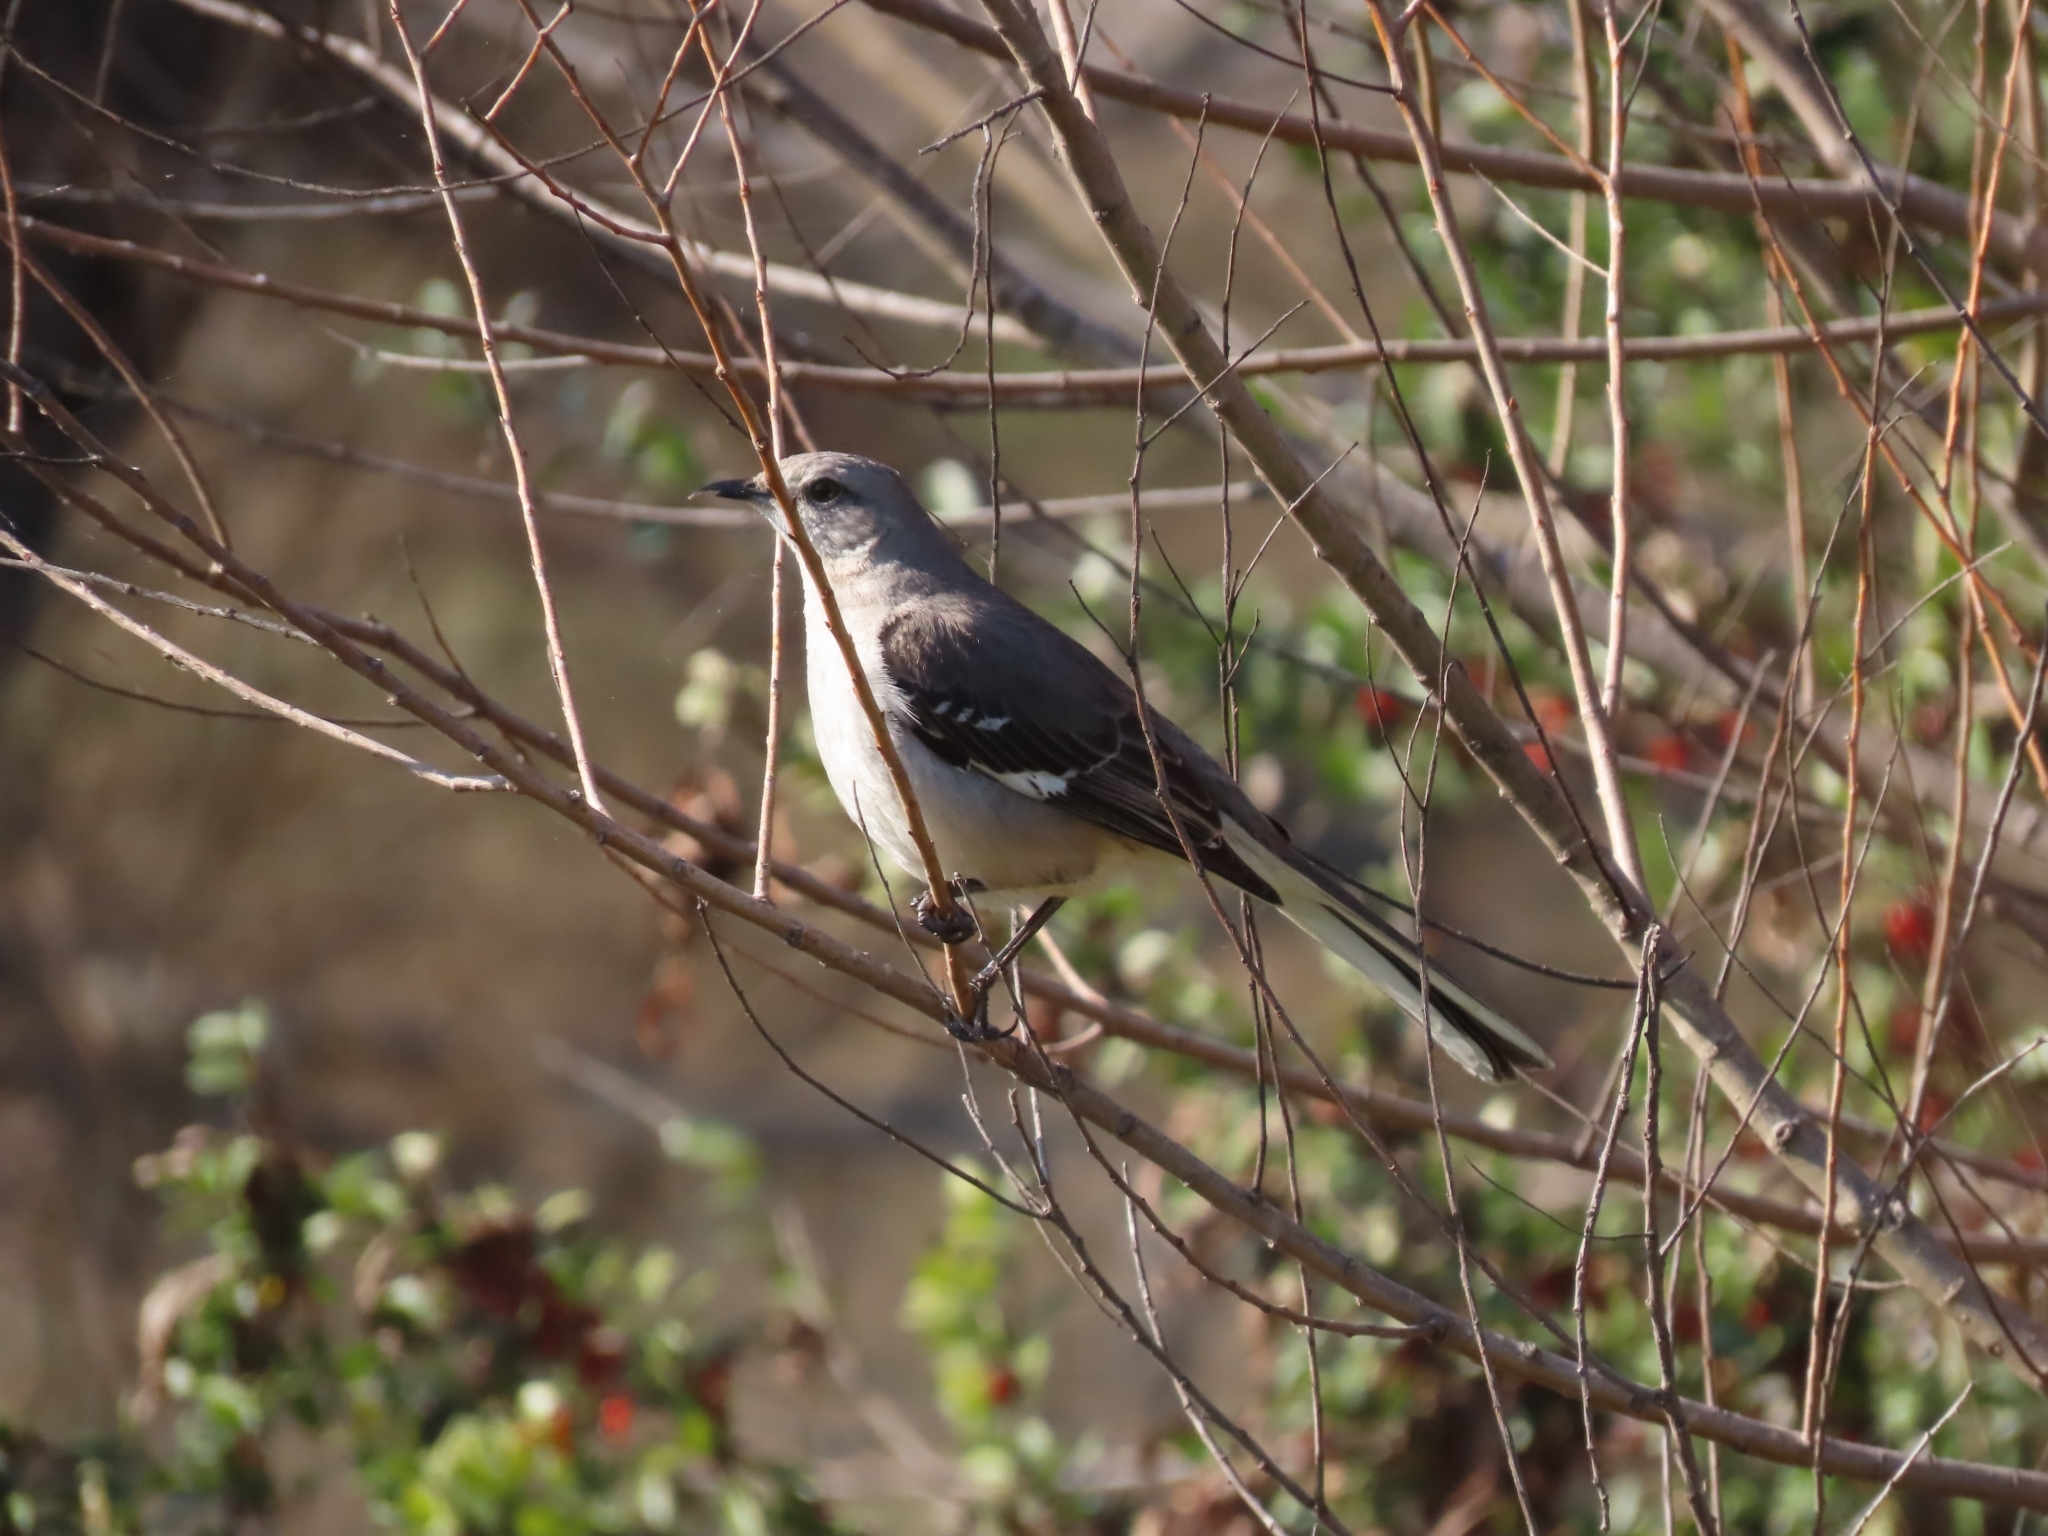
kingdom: Animalia
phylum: Chordata
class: Aves
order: Passeriformes
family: Mimidae
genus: Mimus
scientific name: Mimus polyglottos
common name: Northern mockingbird
